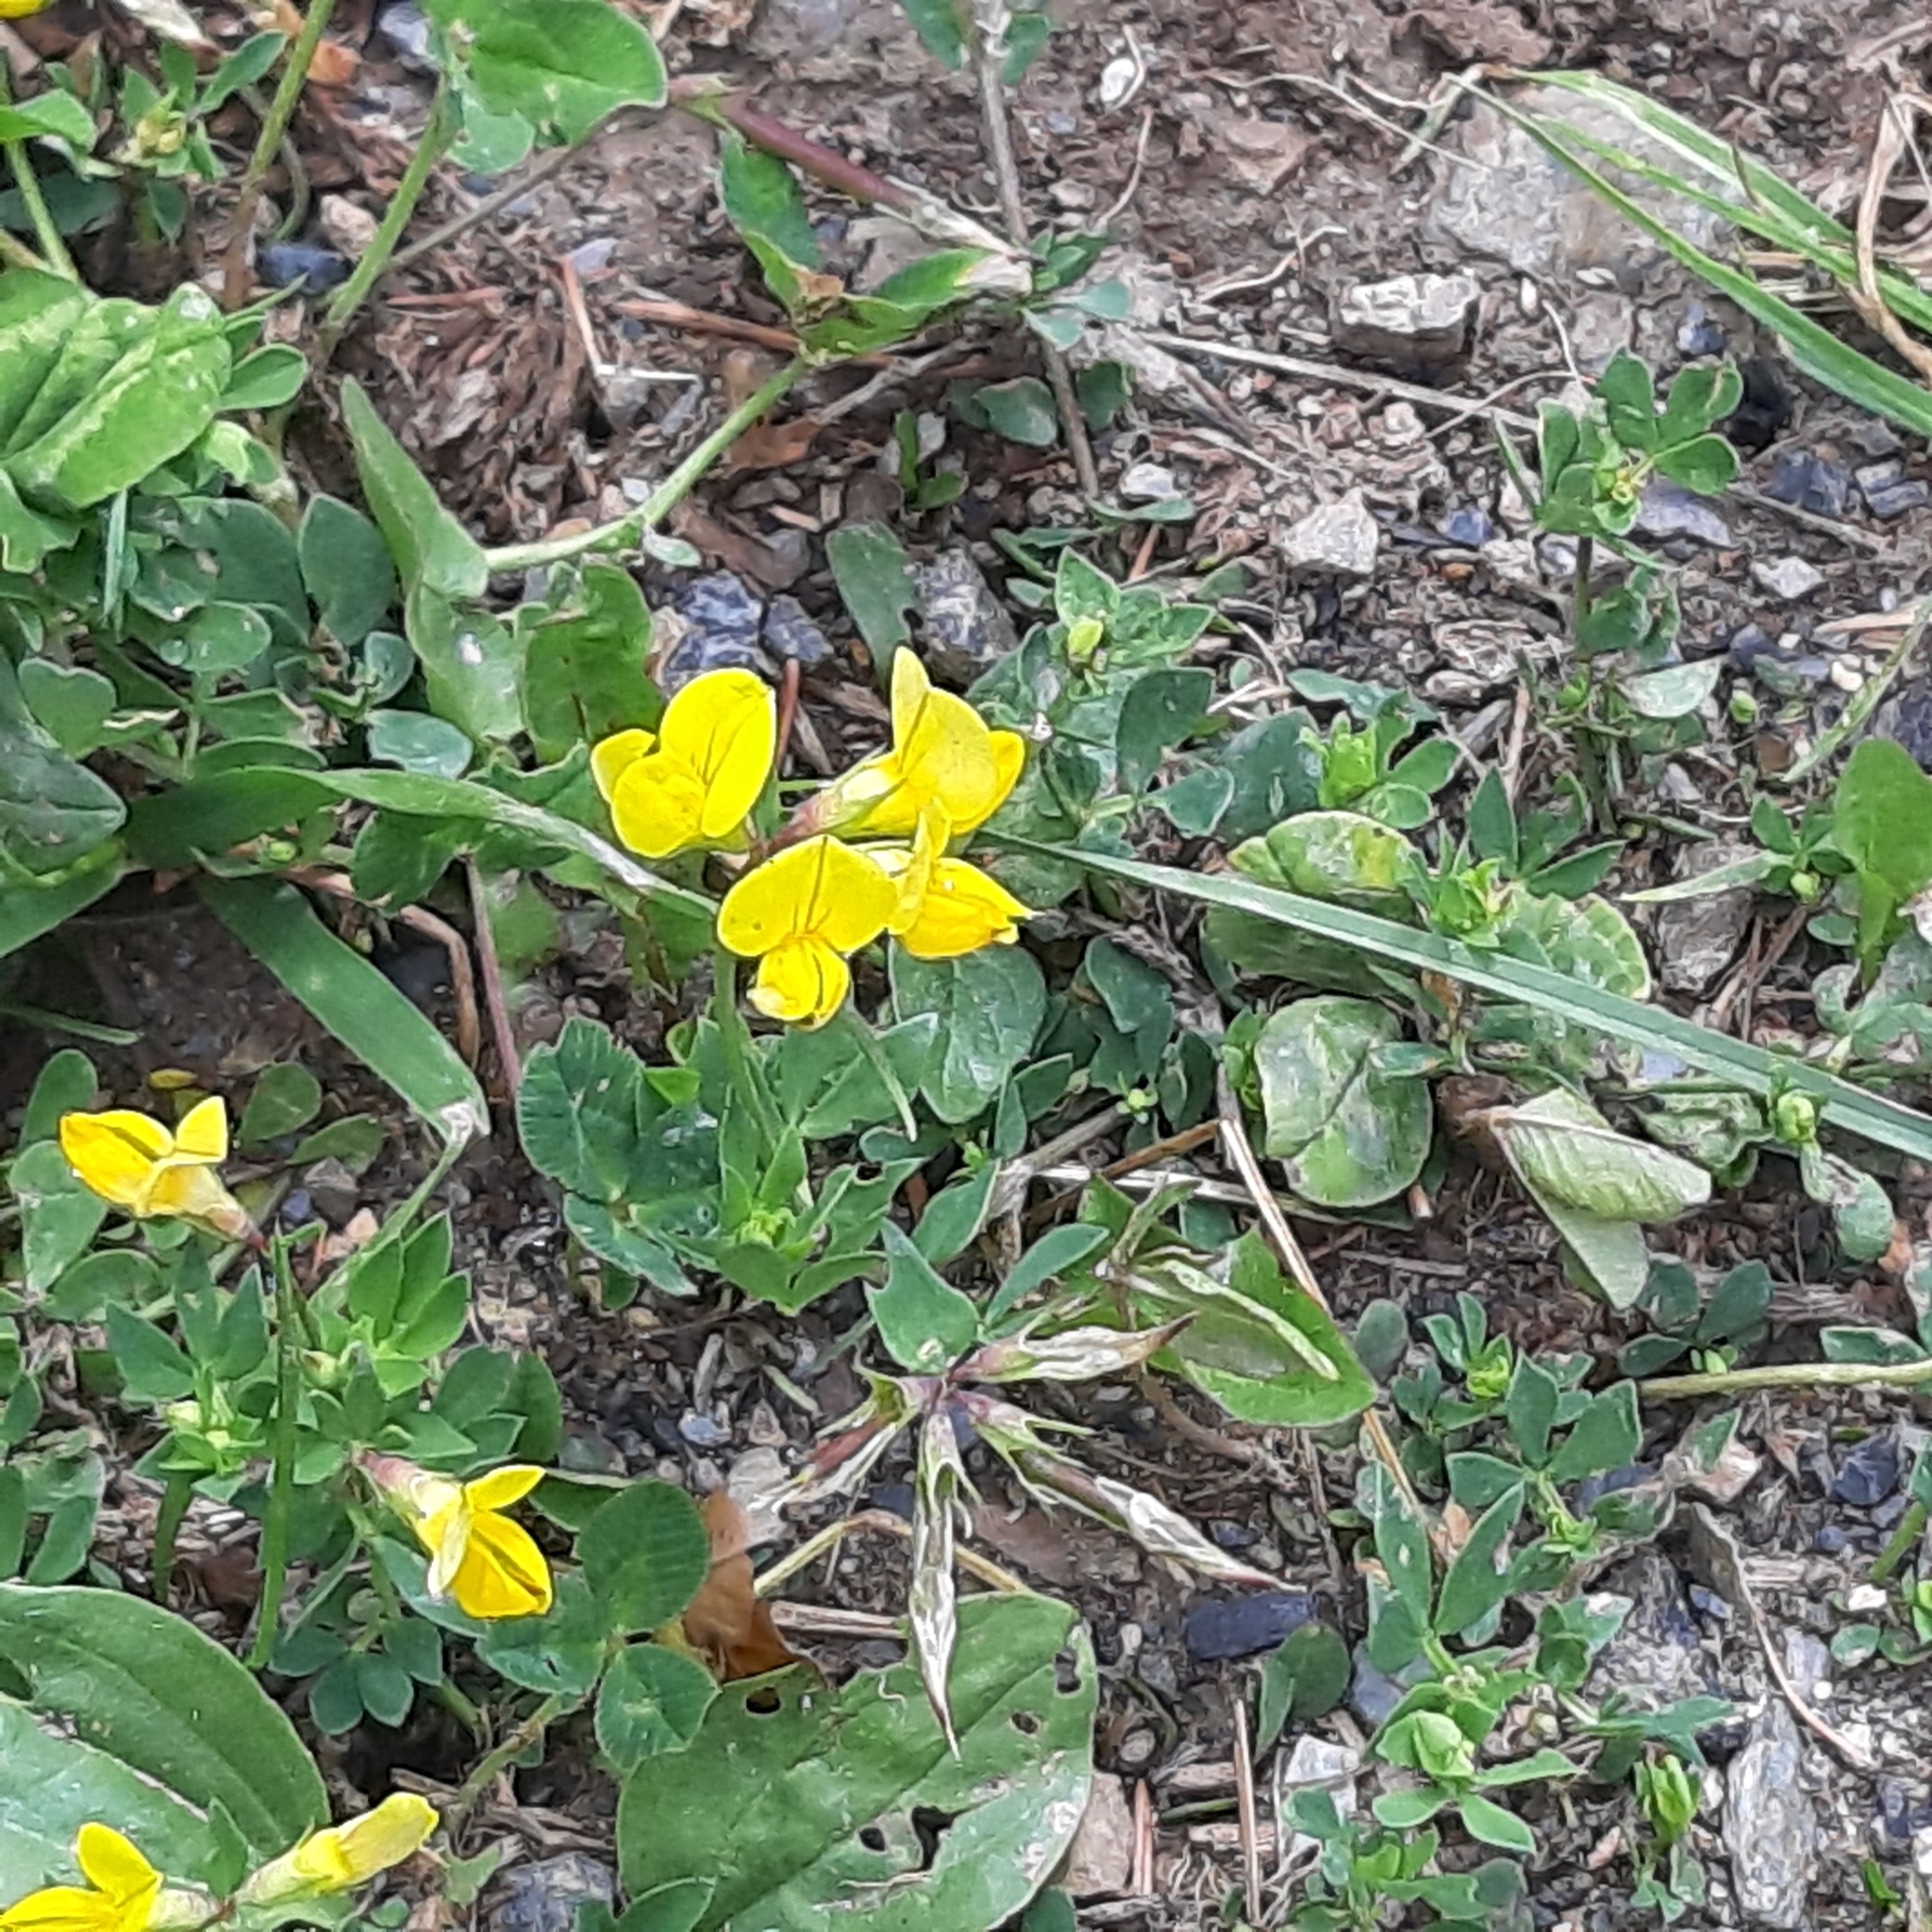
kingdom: Plantae
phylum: Tracheophyta
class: Magnoliopsida
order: Fabales
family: Fabaceae
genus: Lotus
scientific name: Lotus corniculatus
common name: Common bird's-foot-trefoil
